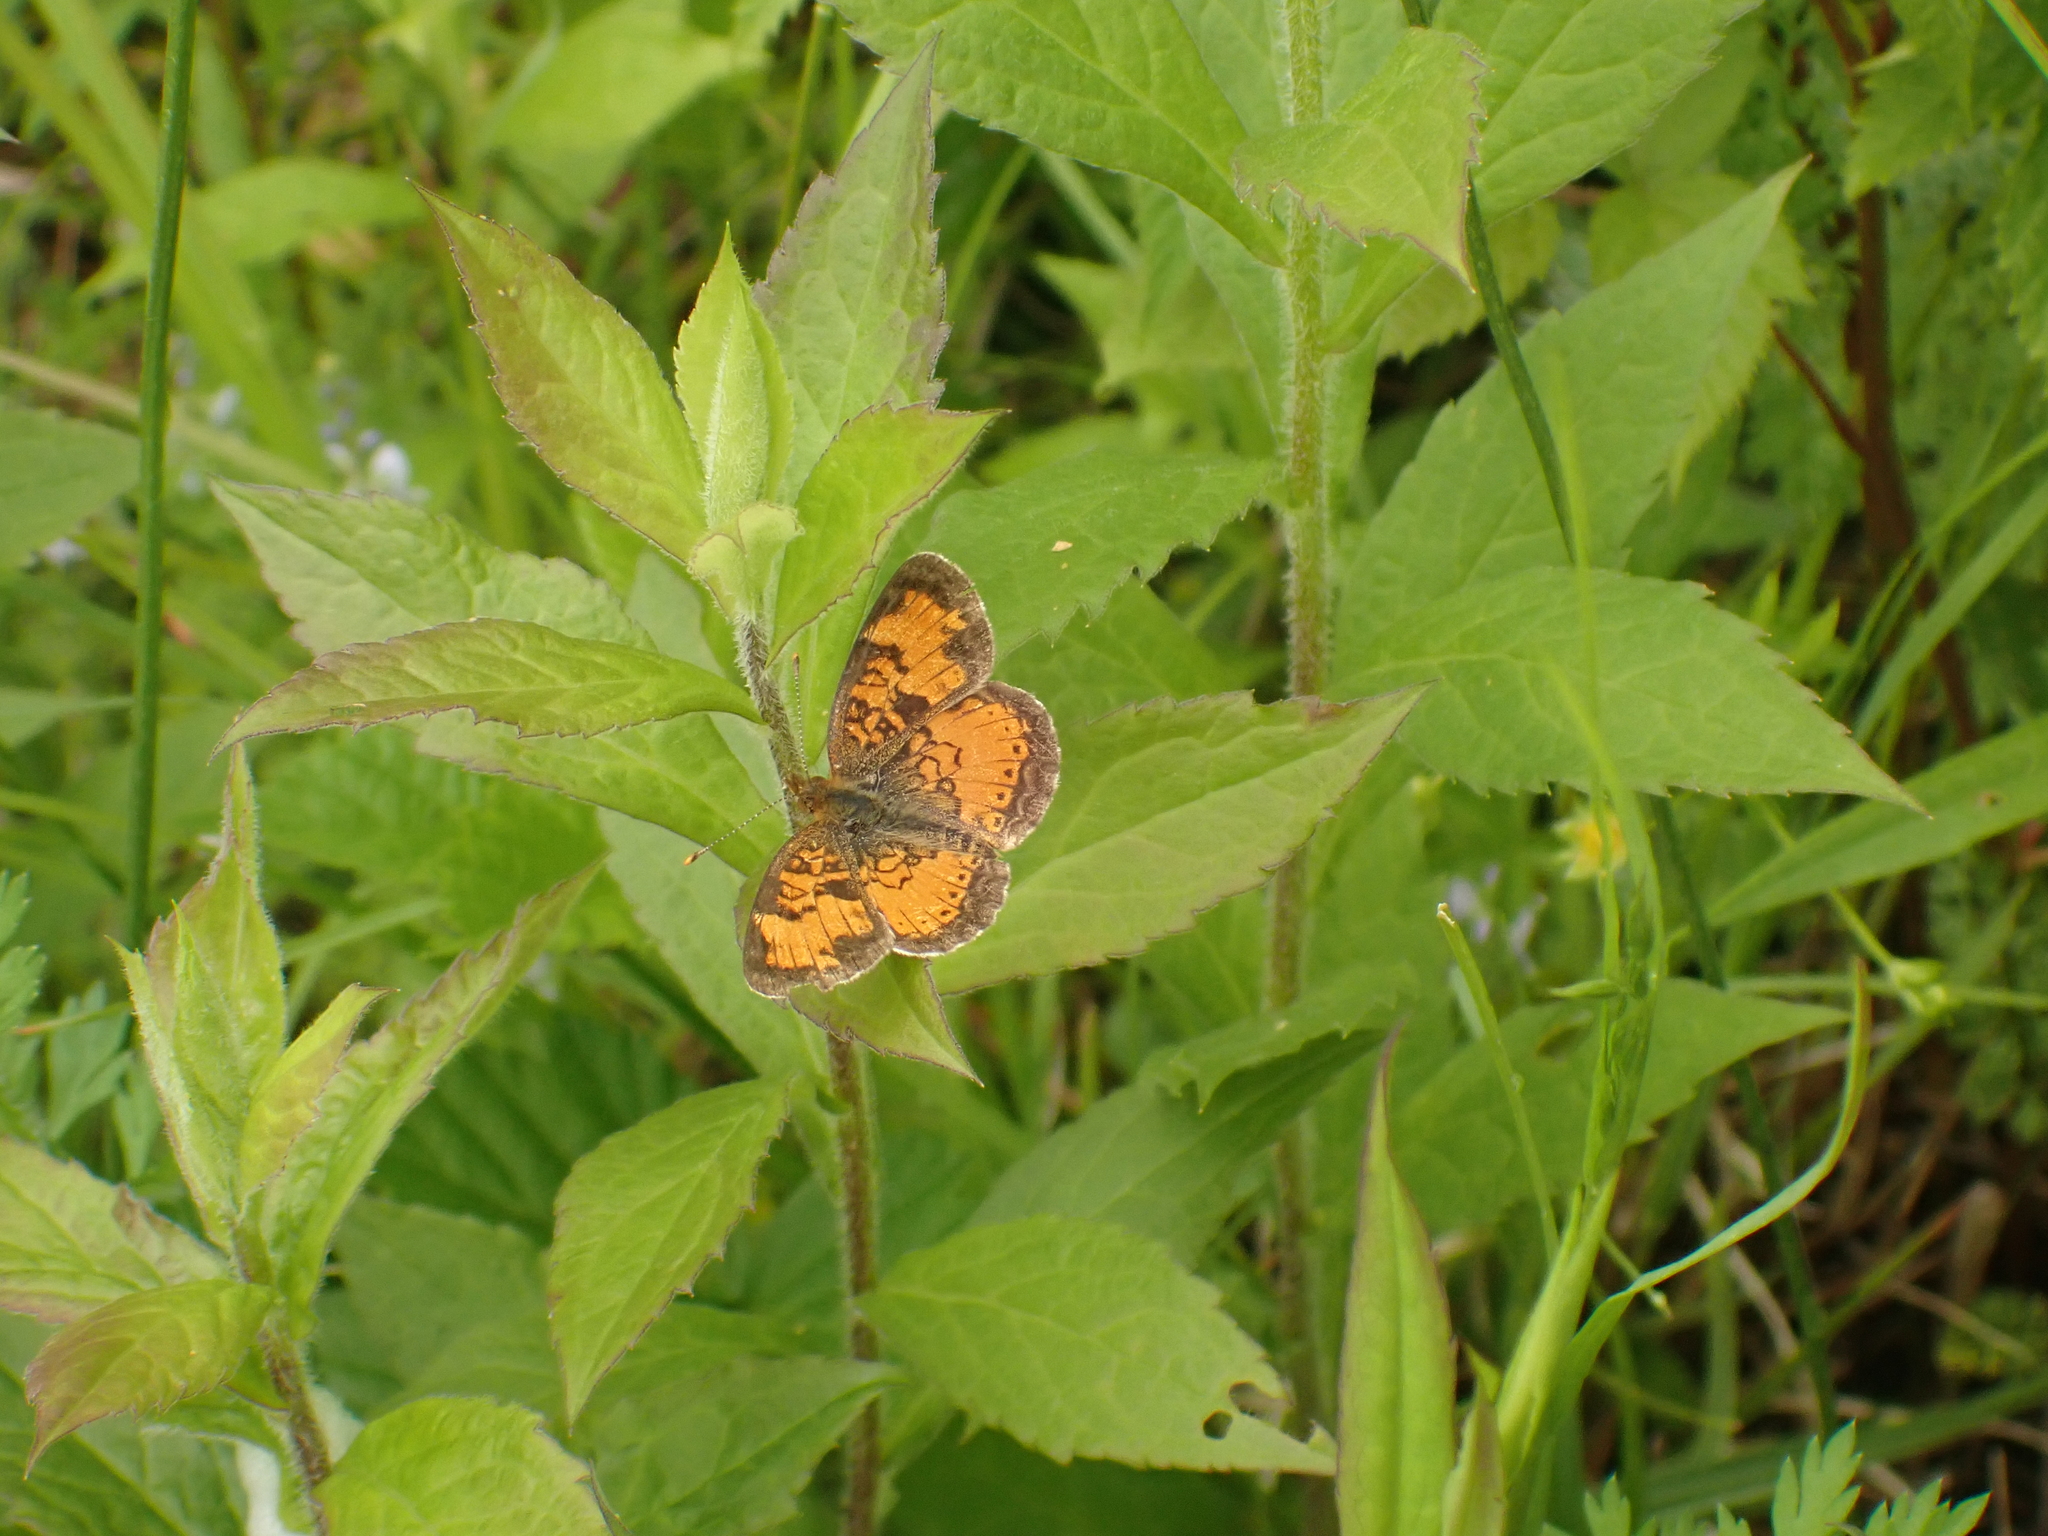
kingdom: Animalia
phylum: Arthropoda
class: Insecta
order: Lepidoptera
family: Nymphalidae
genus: Phyciodes
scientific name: Phyciodes tharos
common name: Pearl crescent
